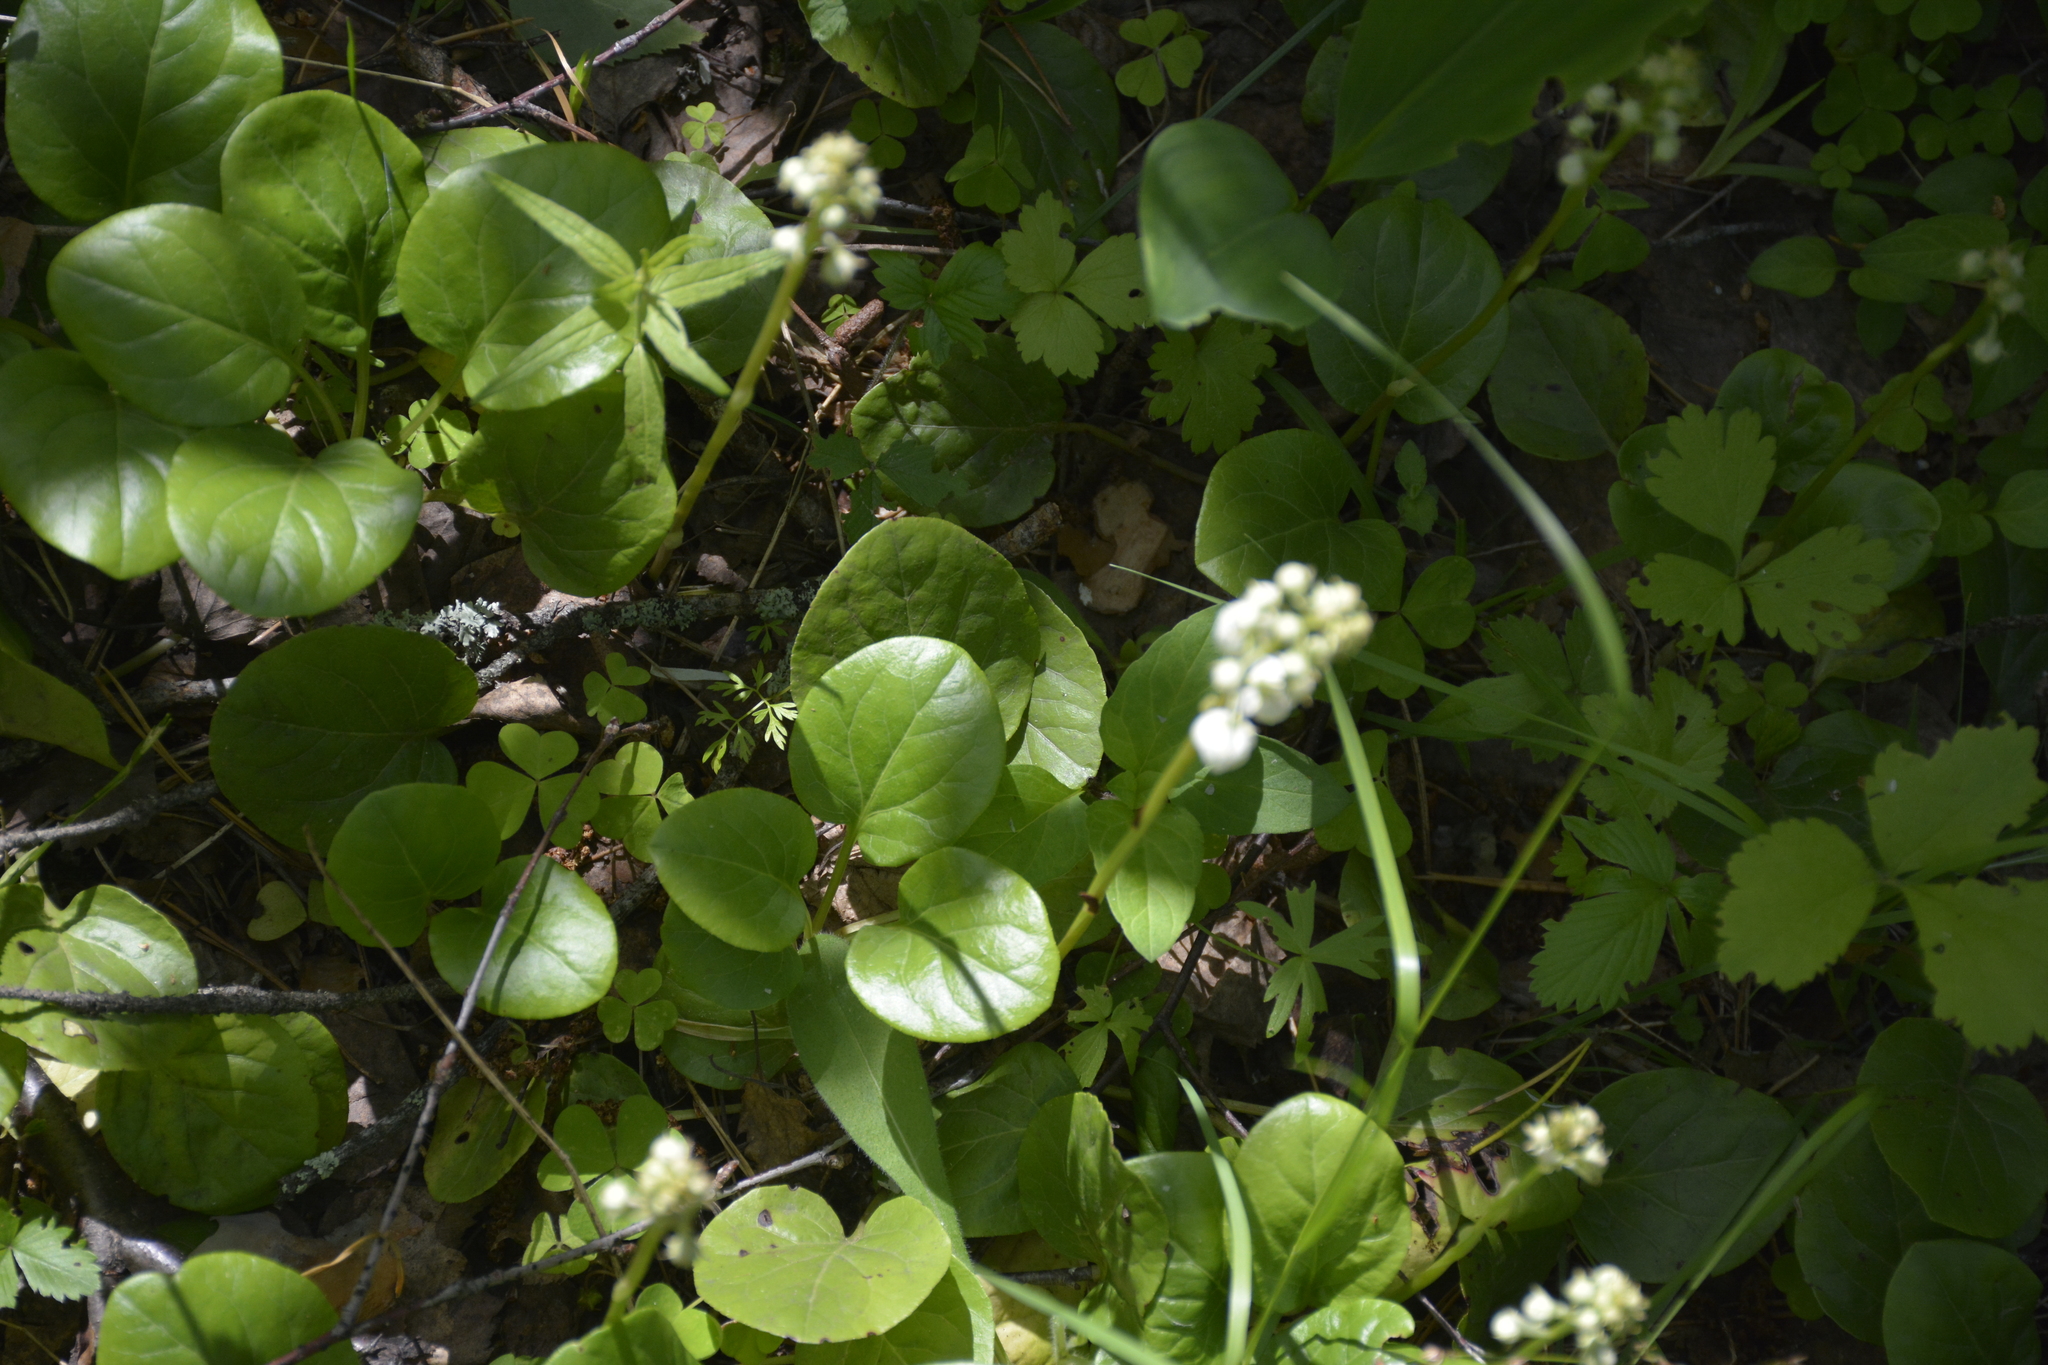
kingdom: Plantae
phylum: Tracheophyta
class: Magnoliopsida
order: Ericales
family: Ericaceae
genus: Pyrola
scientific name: Pyrola rotundifolia
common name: Round-leaved wintergreen
